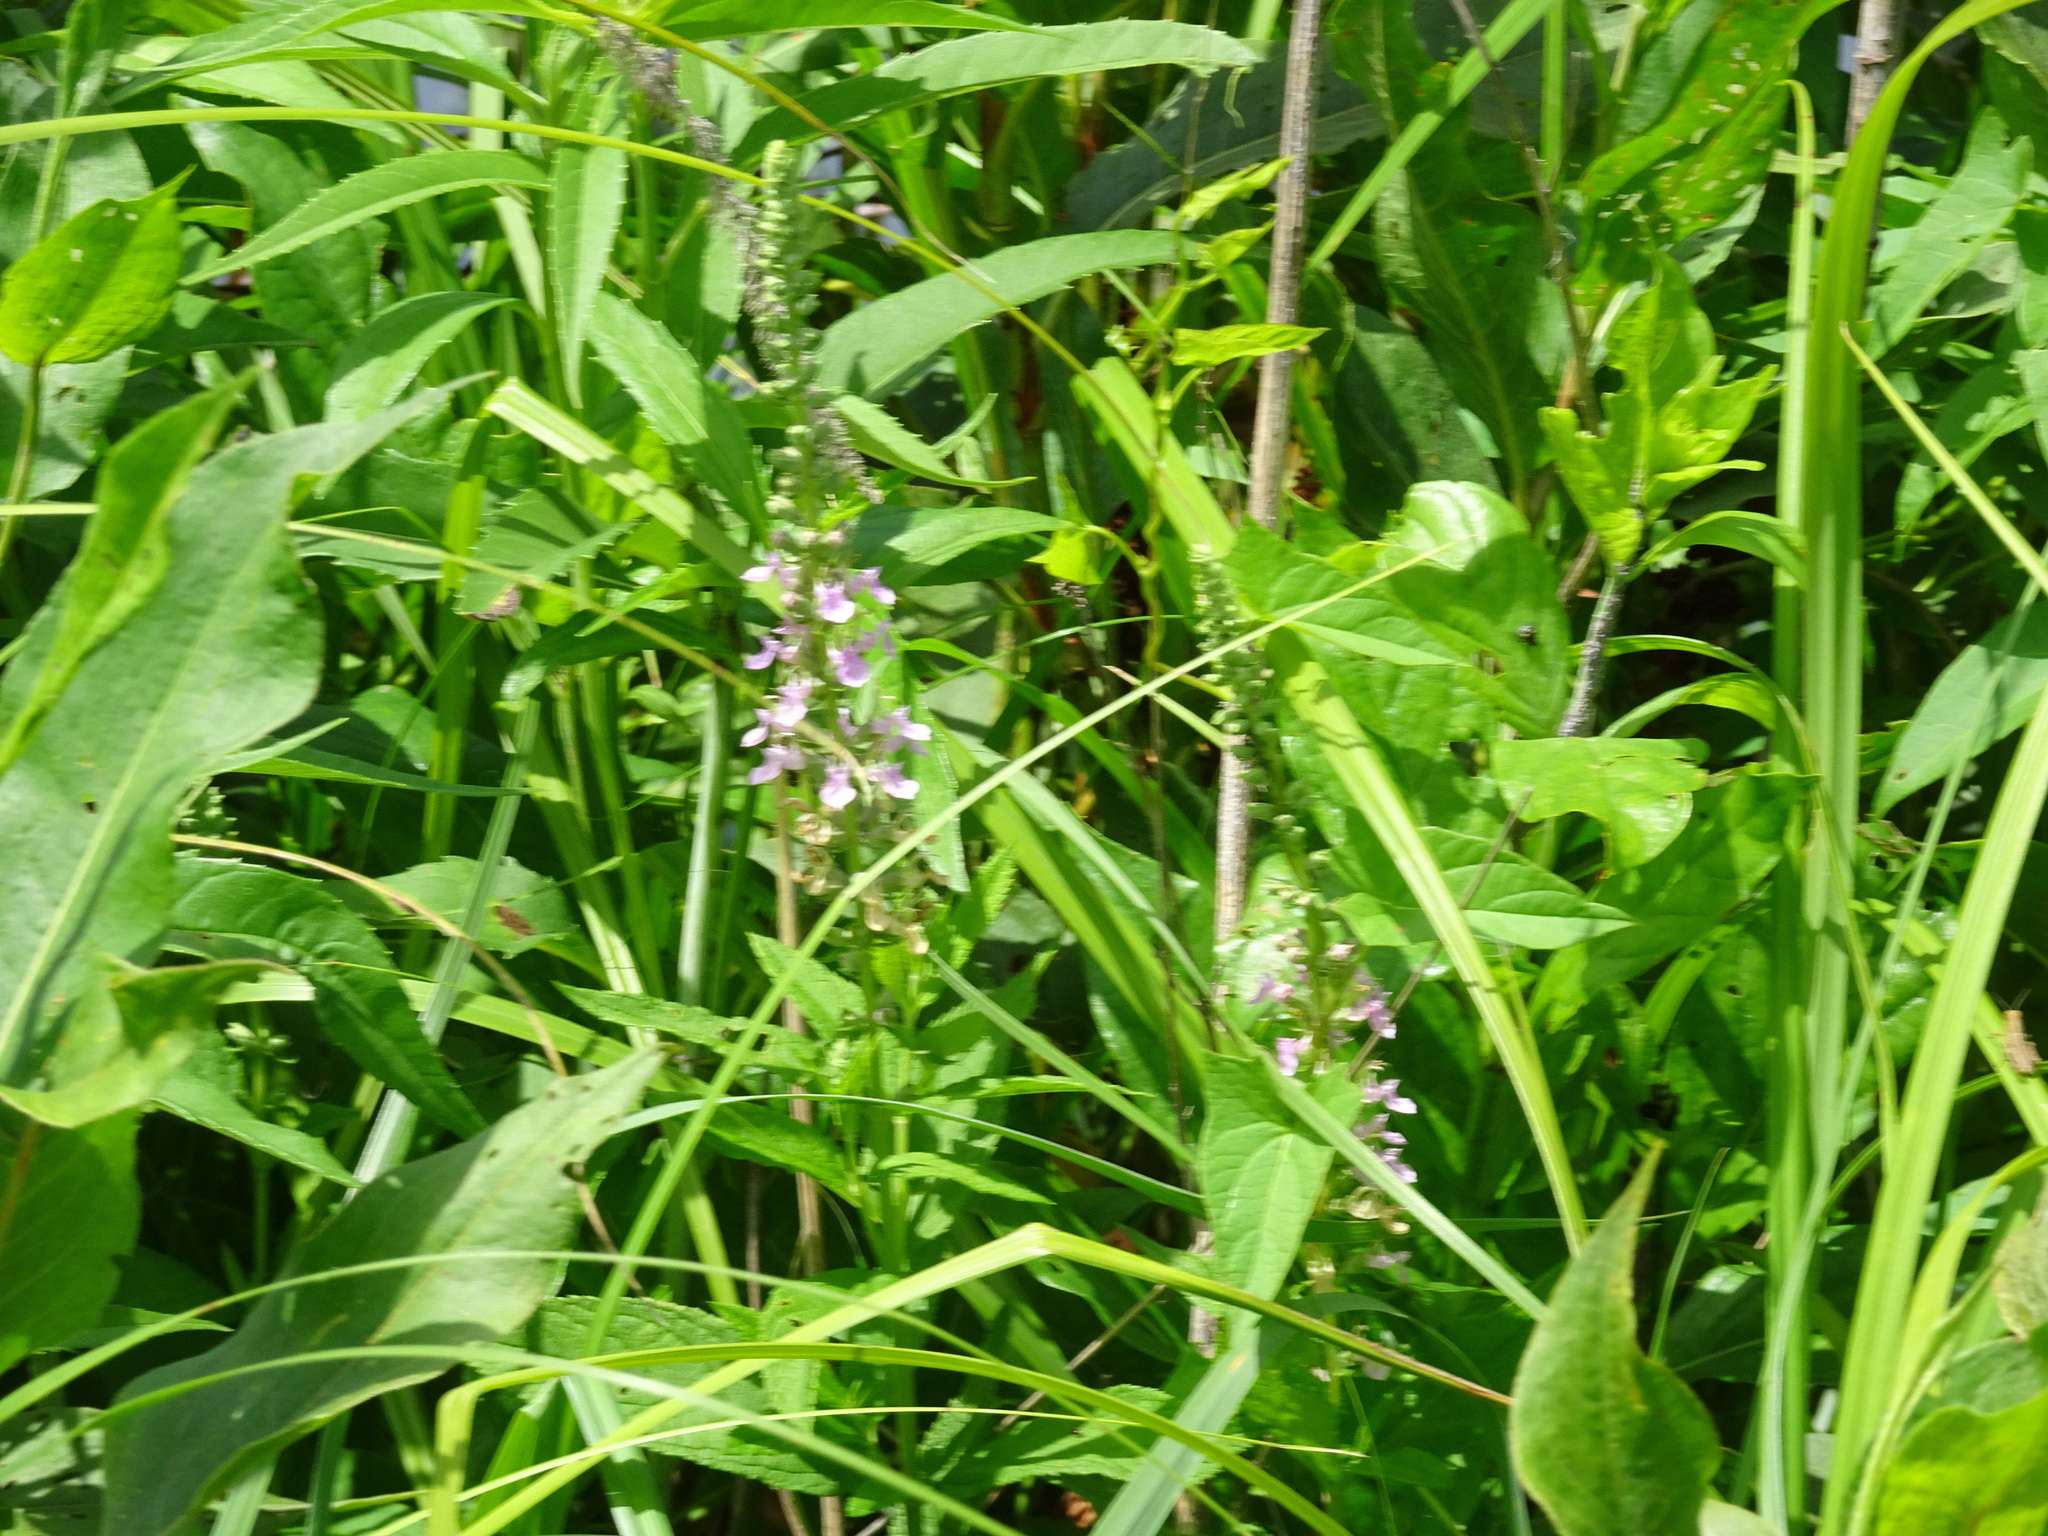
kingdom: Plantae
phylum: Tracheophyta
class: Magnoliopsida
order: Lamiales
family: Lamiaceae
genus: Teucrium
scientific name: Teucrium canadense
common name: American germander
